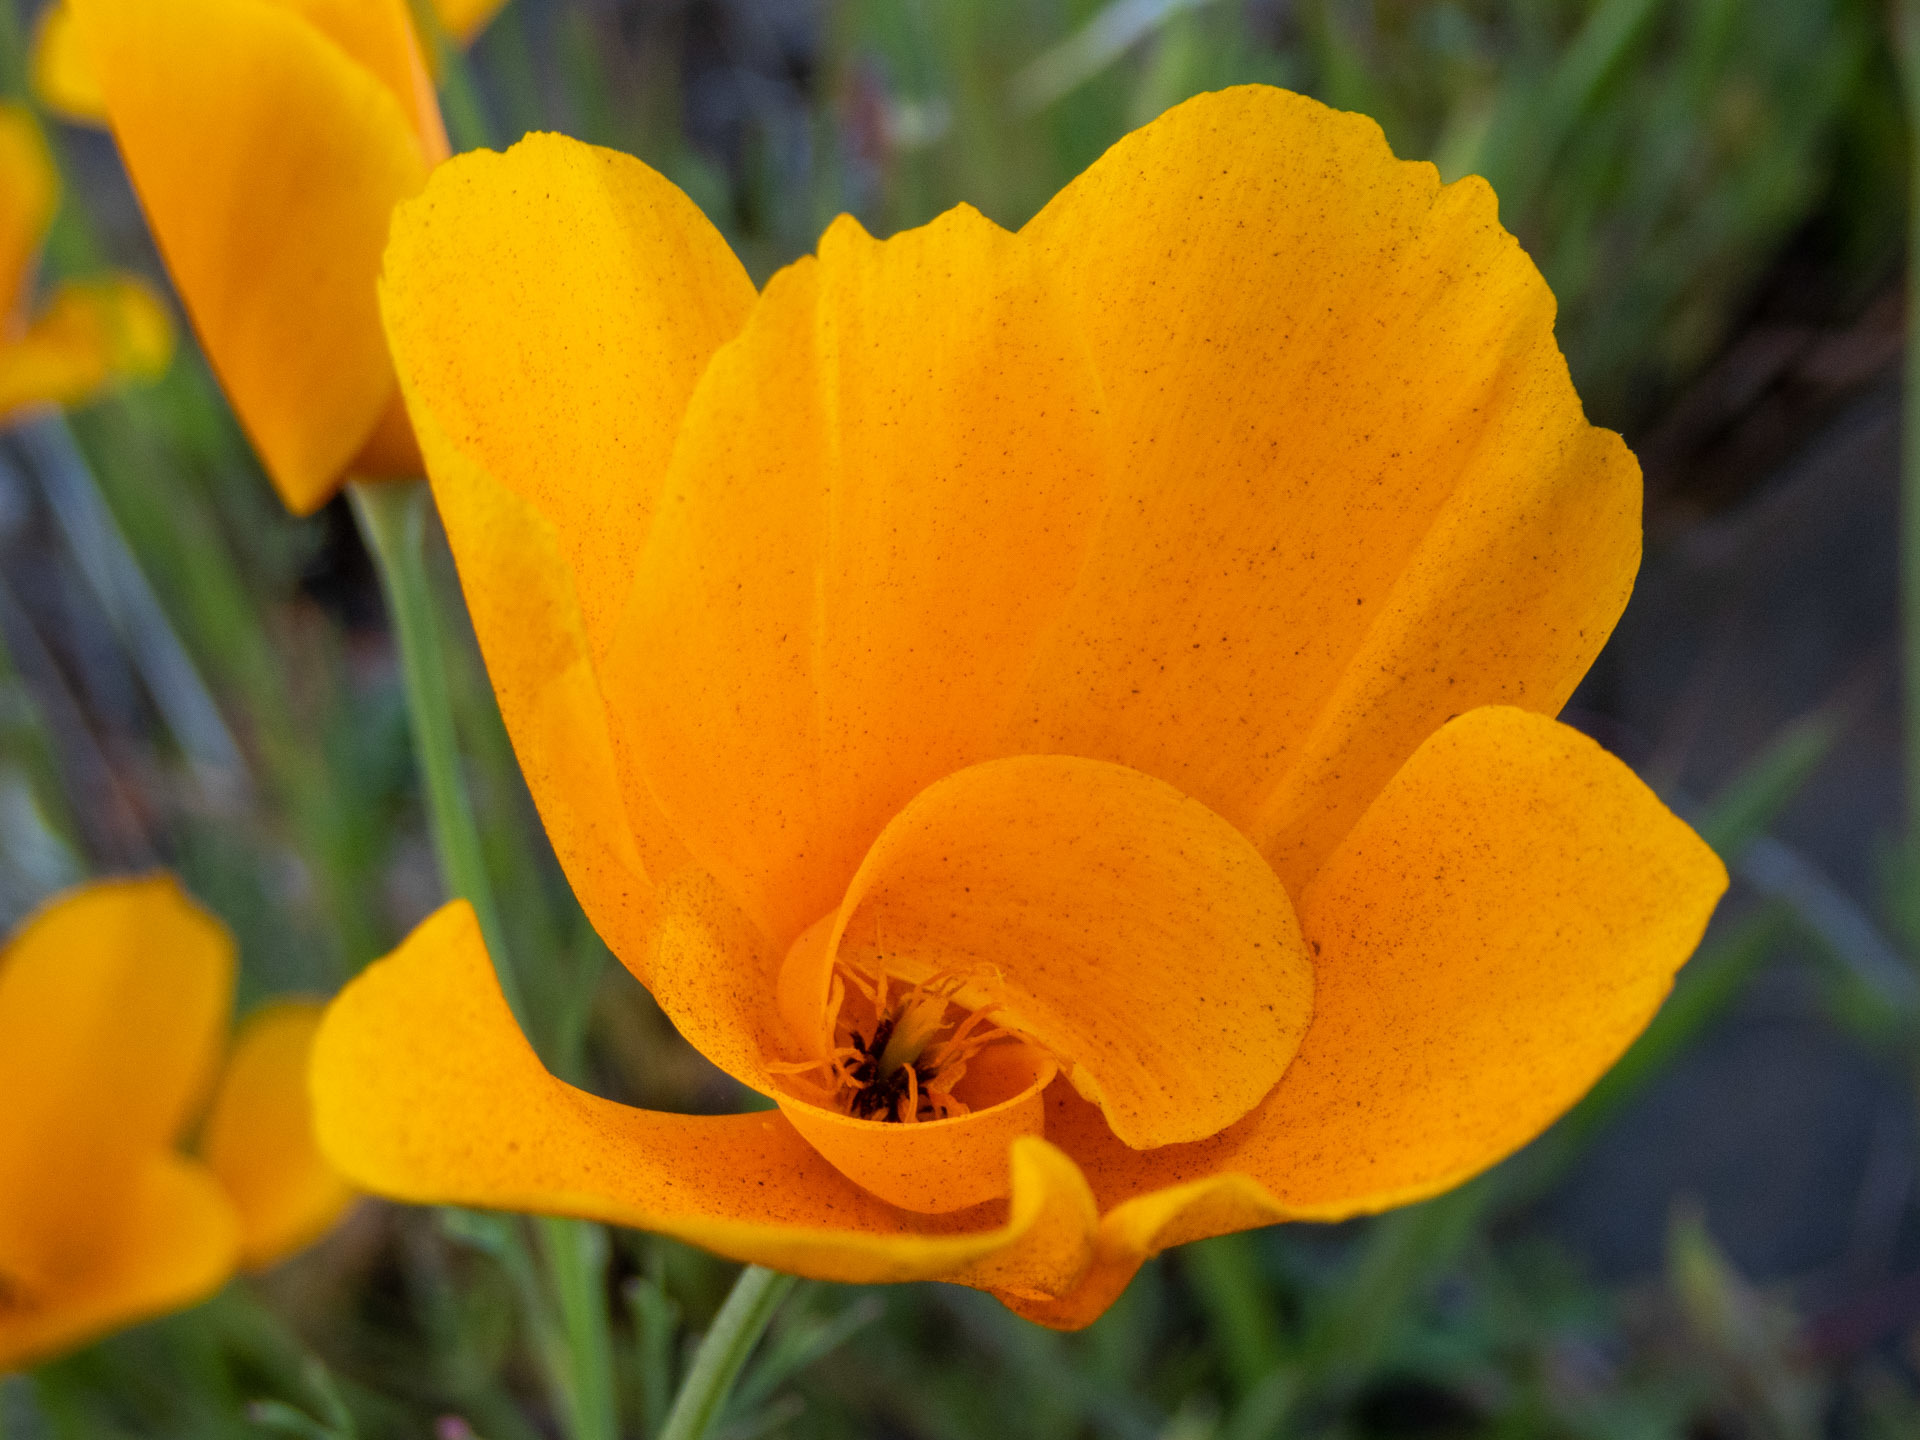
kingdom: Plantae
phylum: Tracheophyta
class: Magnoliopsida
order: Ranunculales
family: Papaveraceae
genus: Eschscholzia
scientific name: Eschscholzia caespitosa
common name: Tufted california-poppy
